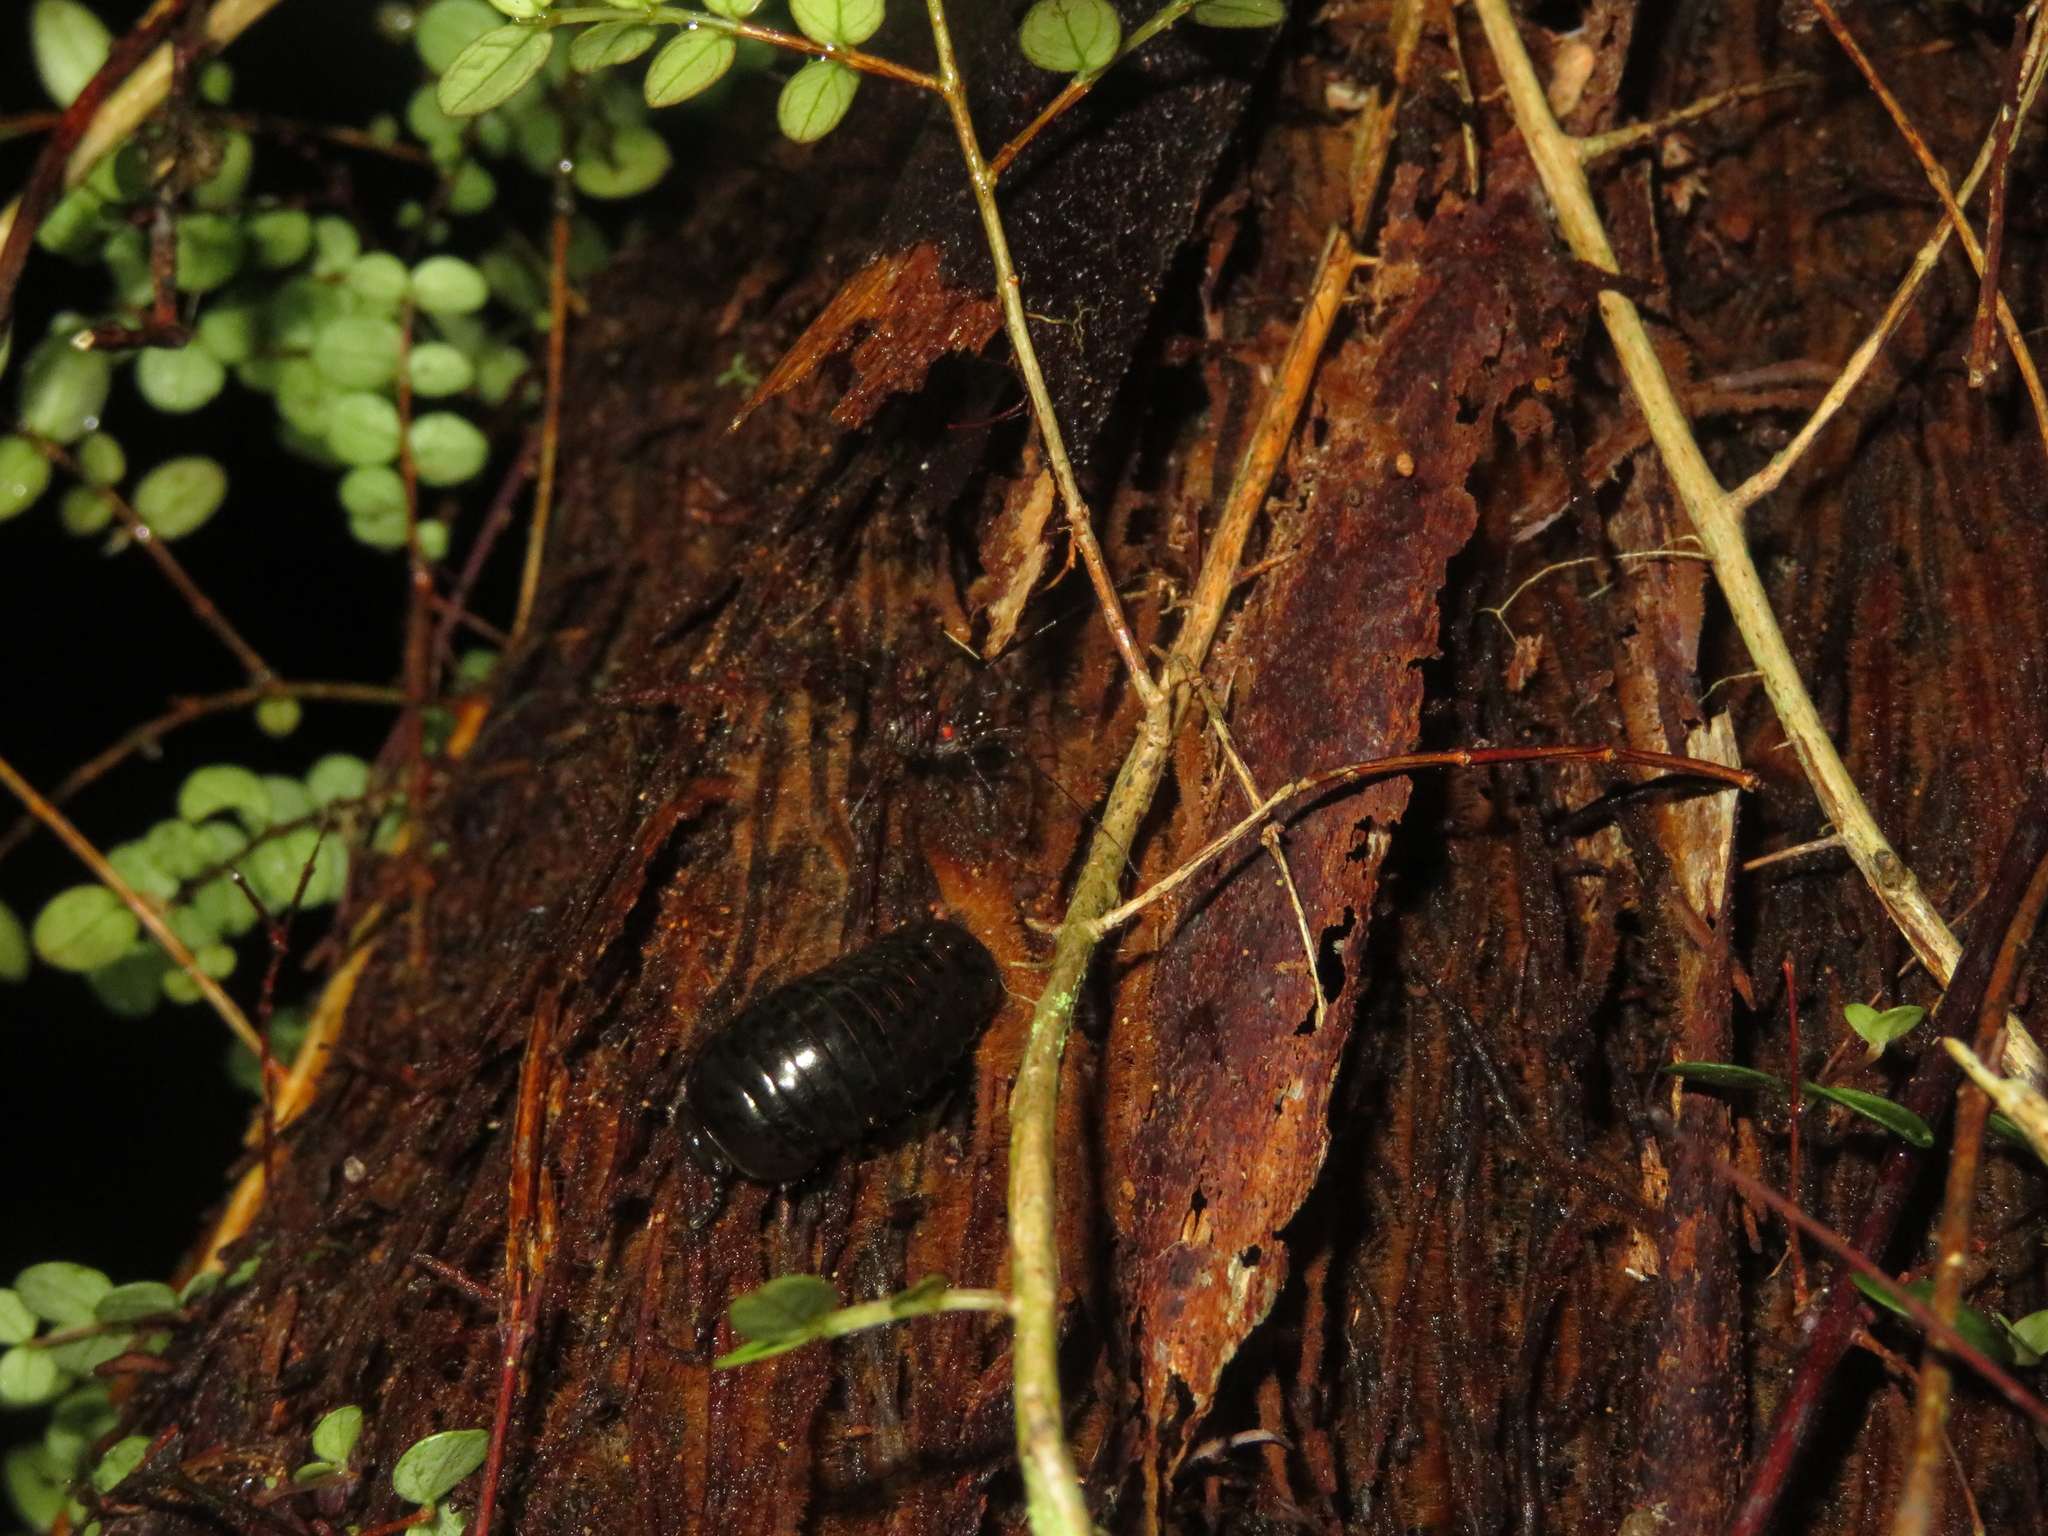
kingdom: Animalia
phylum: Arthropoda
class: Arachnida
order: Opiliones
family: Triaenonychidae
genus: Hendea
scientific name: Hendea myersi
